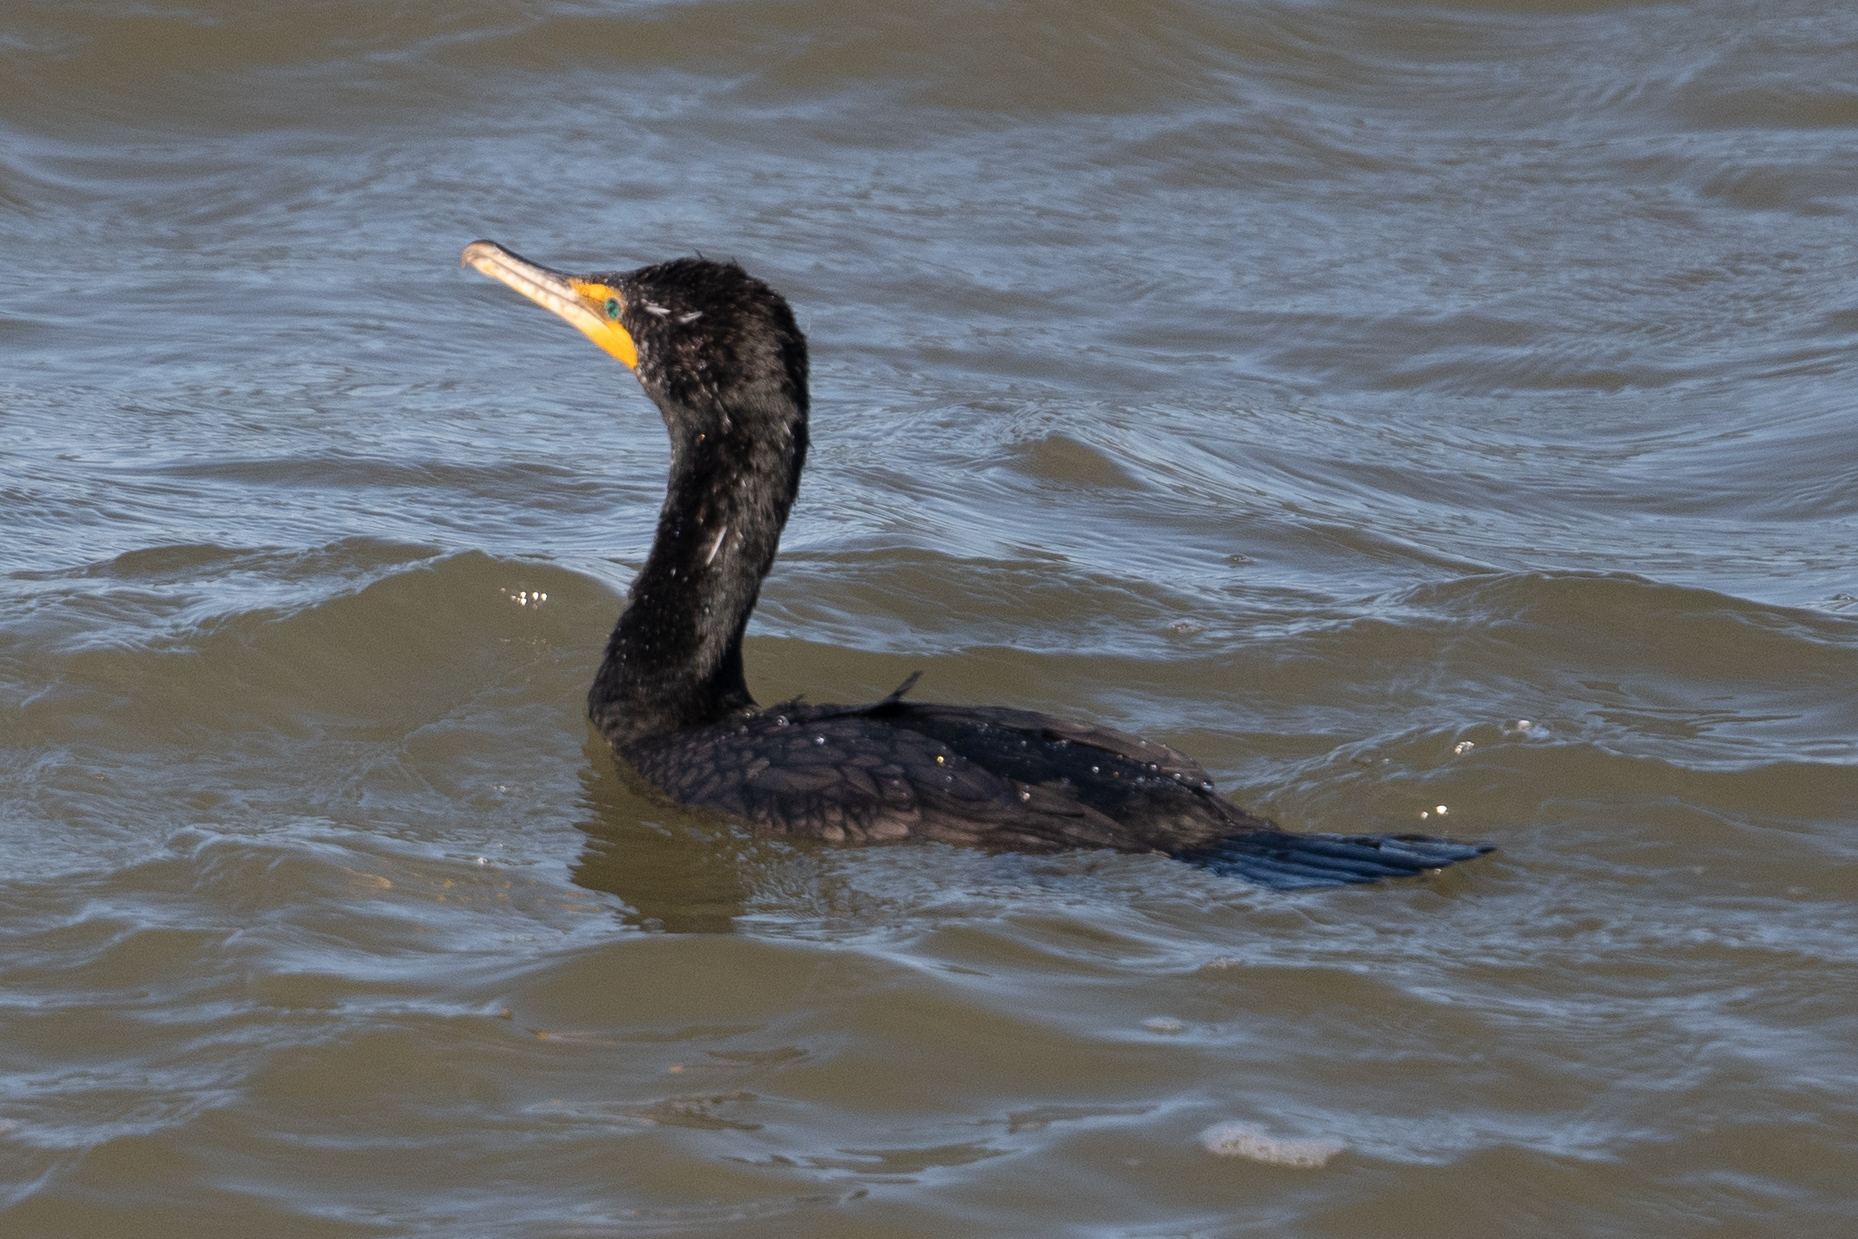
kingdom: Animalia
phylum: Chordata
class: Aves
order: Suliformes
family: Phalacrocoracidae
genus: Phalacrocorax
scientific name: Phalacrocorax auritus
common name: Double-crested cormorant
